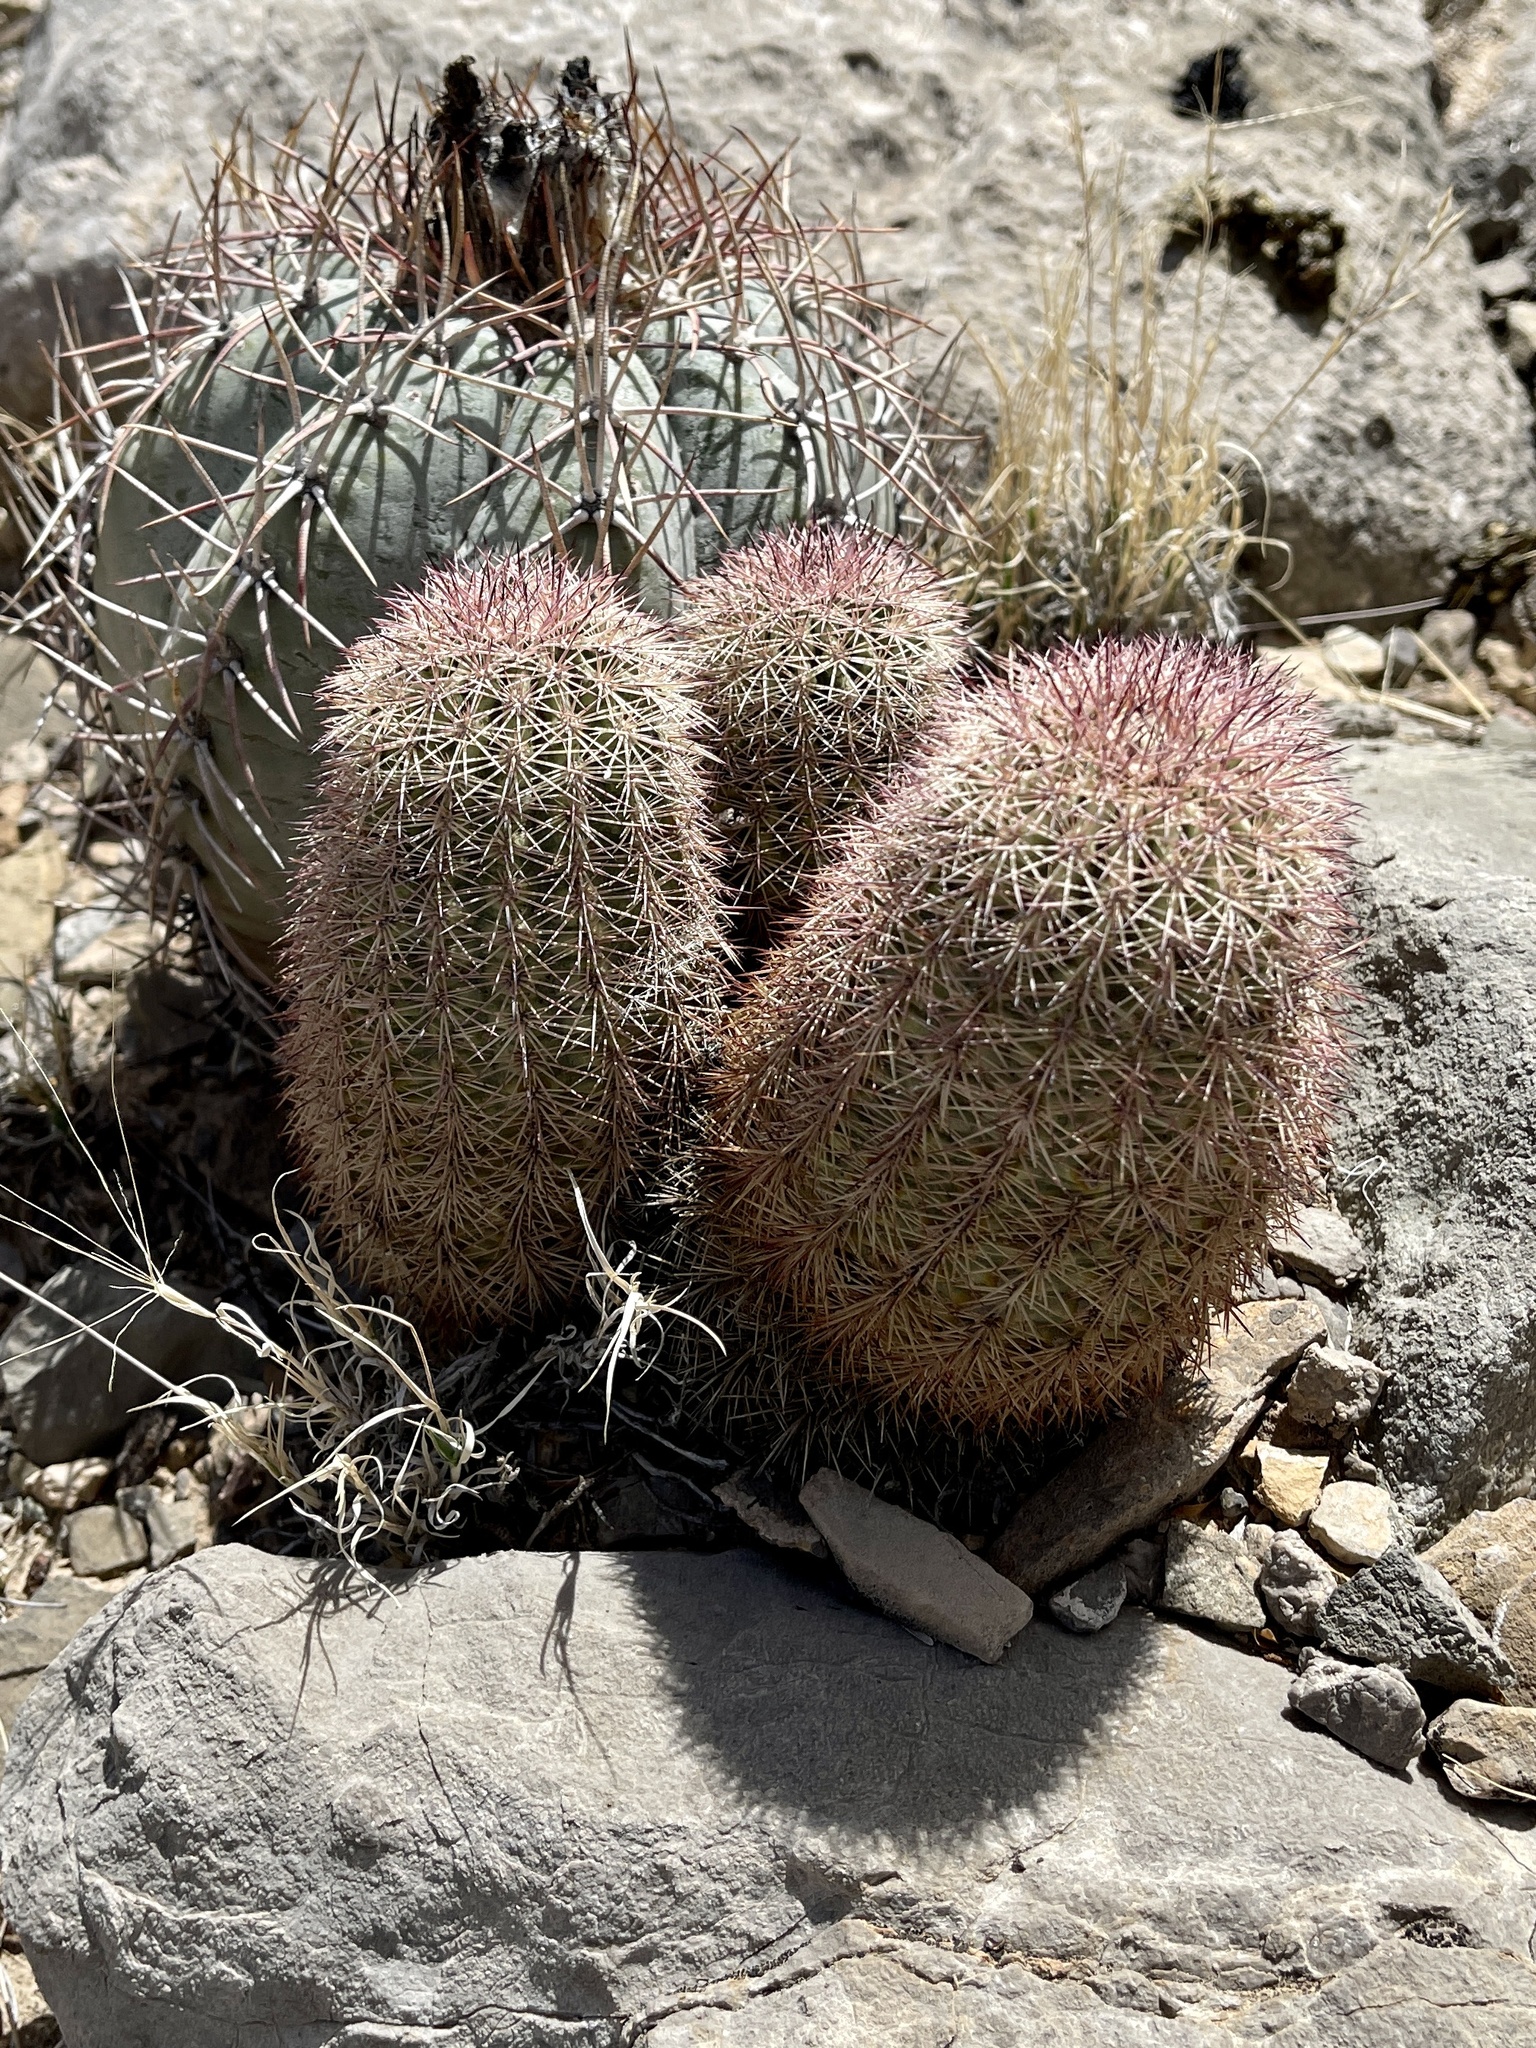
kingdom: Plantae
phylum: Tracheophyta
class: Magnoliopsida
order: Caryophyllales
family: Cactaceae
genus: Echinocereus
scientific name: Echinocereus dasyacanthus
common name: Spiny hedgehog cactus
